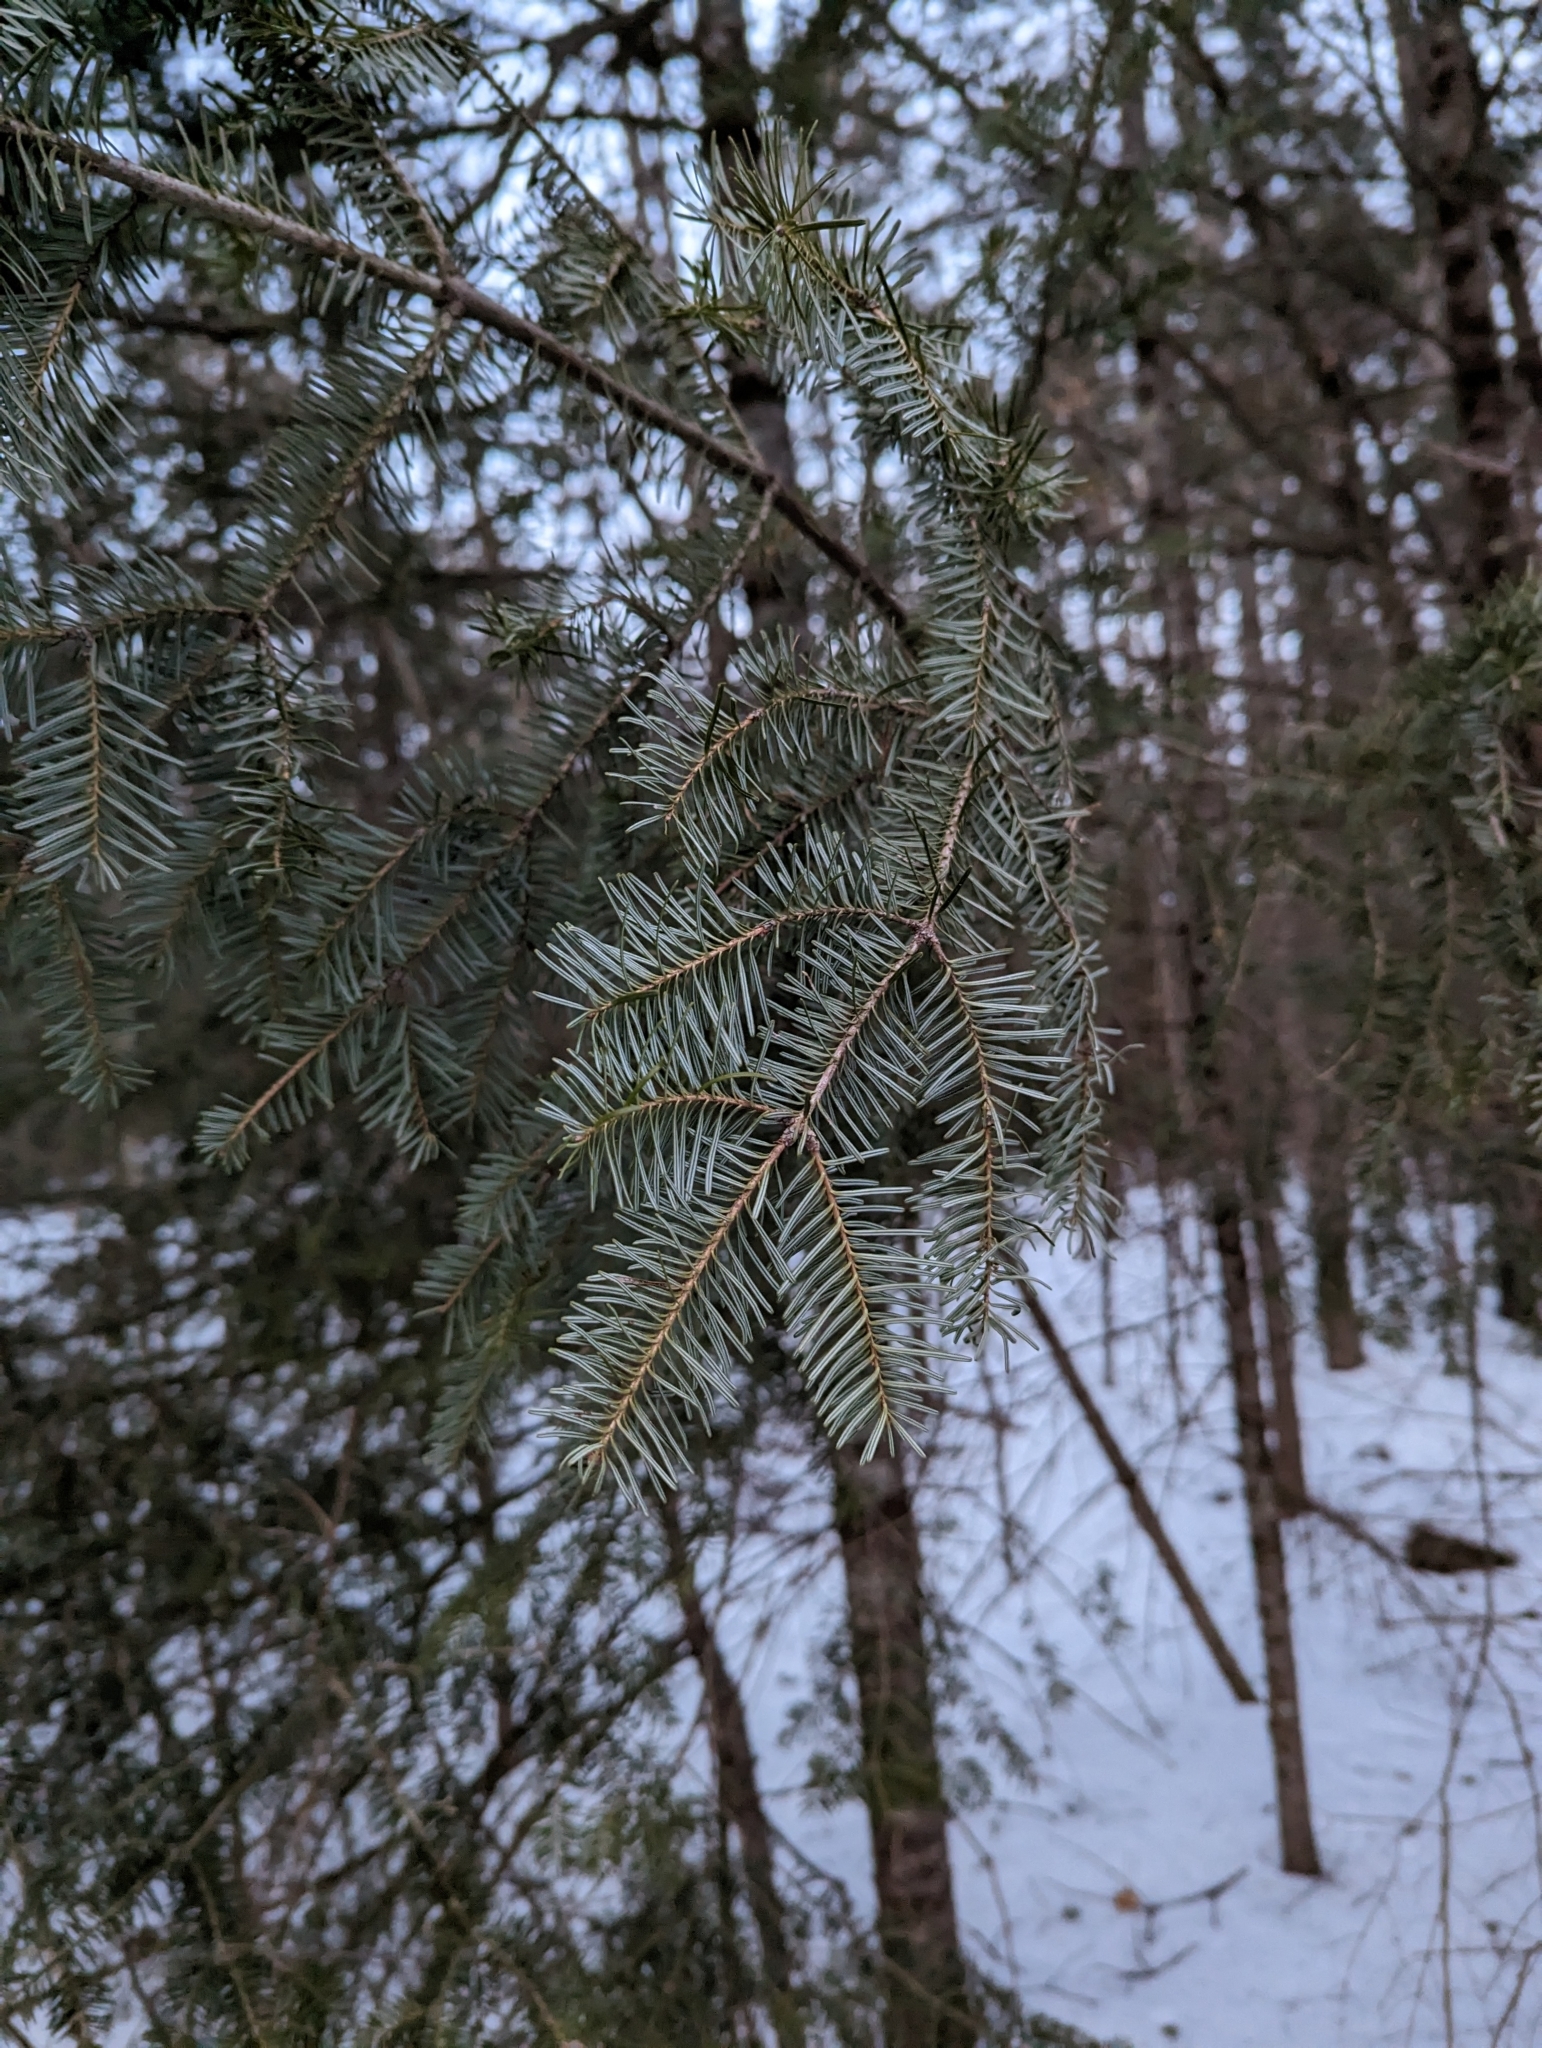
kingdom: Plantae
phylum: Tracheophyta
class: Pinopsida
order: Pinales
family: Pinaceae
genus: Abies
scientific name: Abies balsamea
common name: Balsam fir
